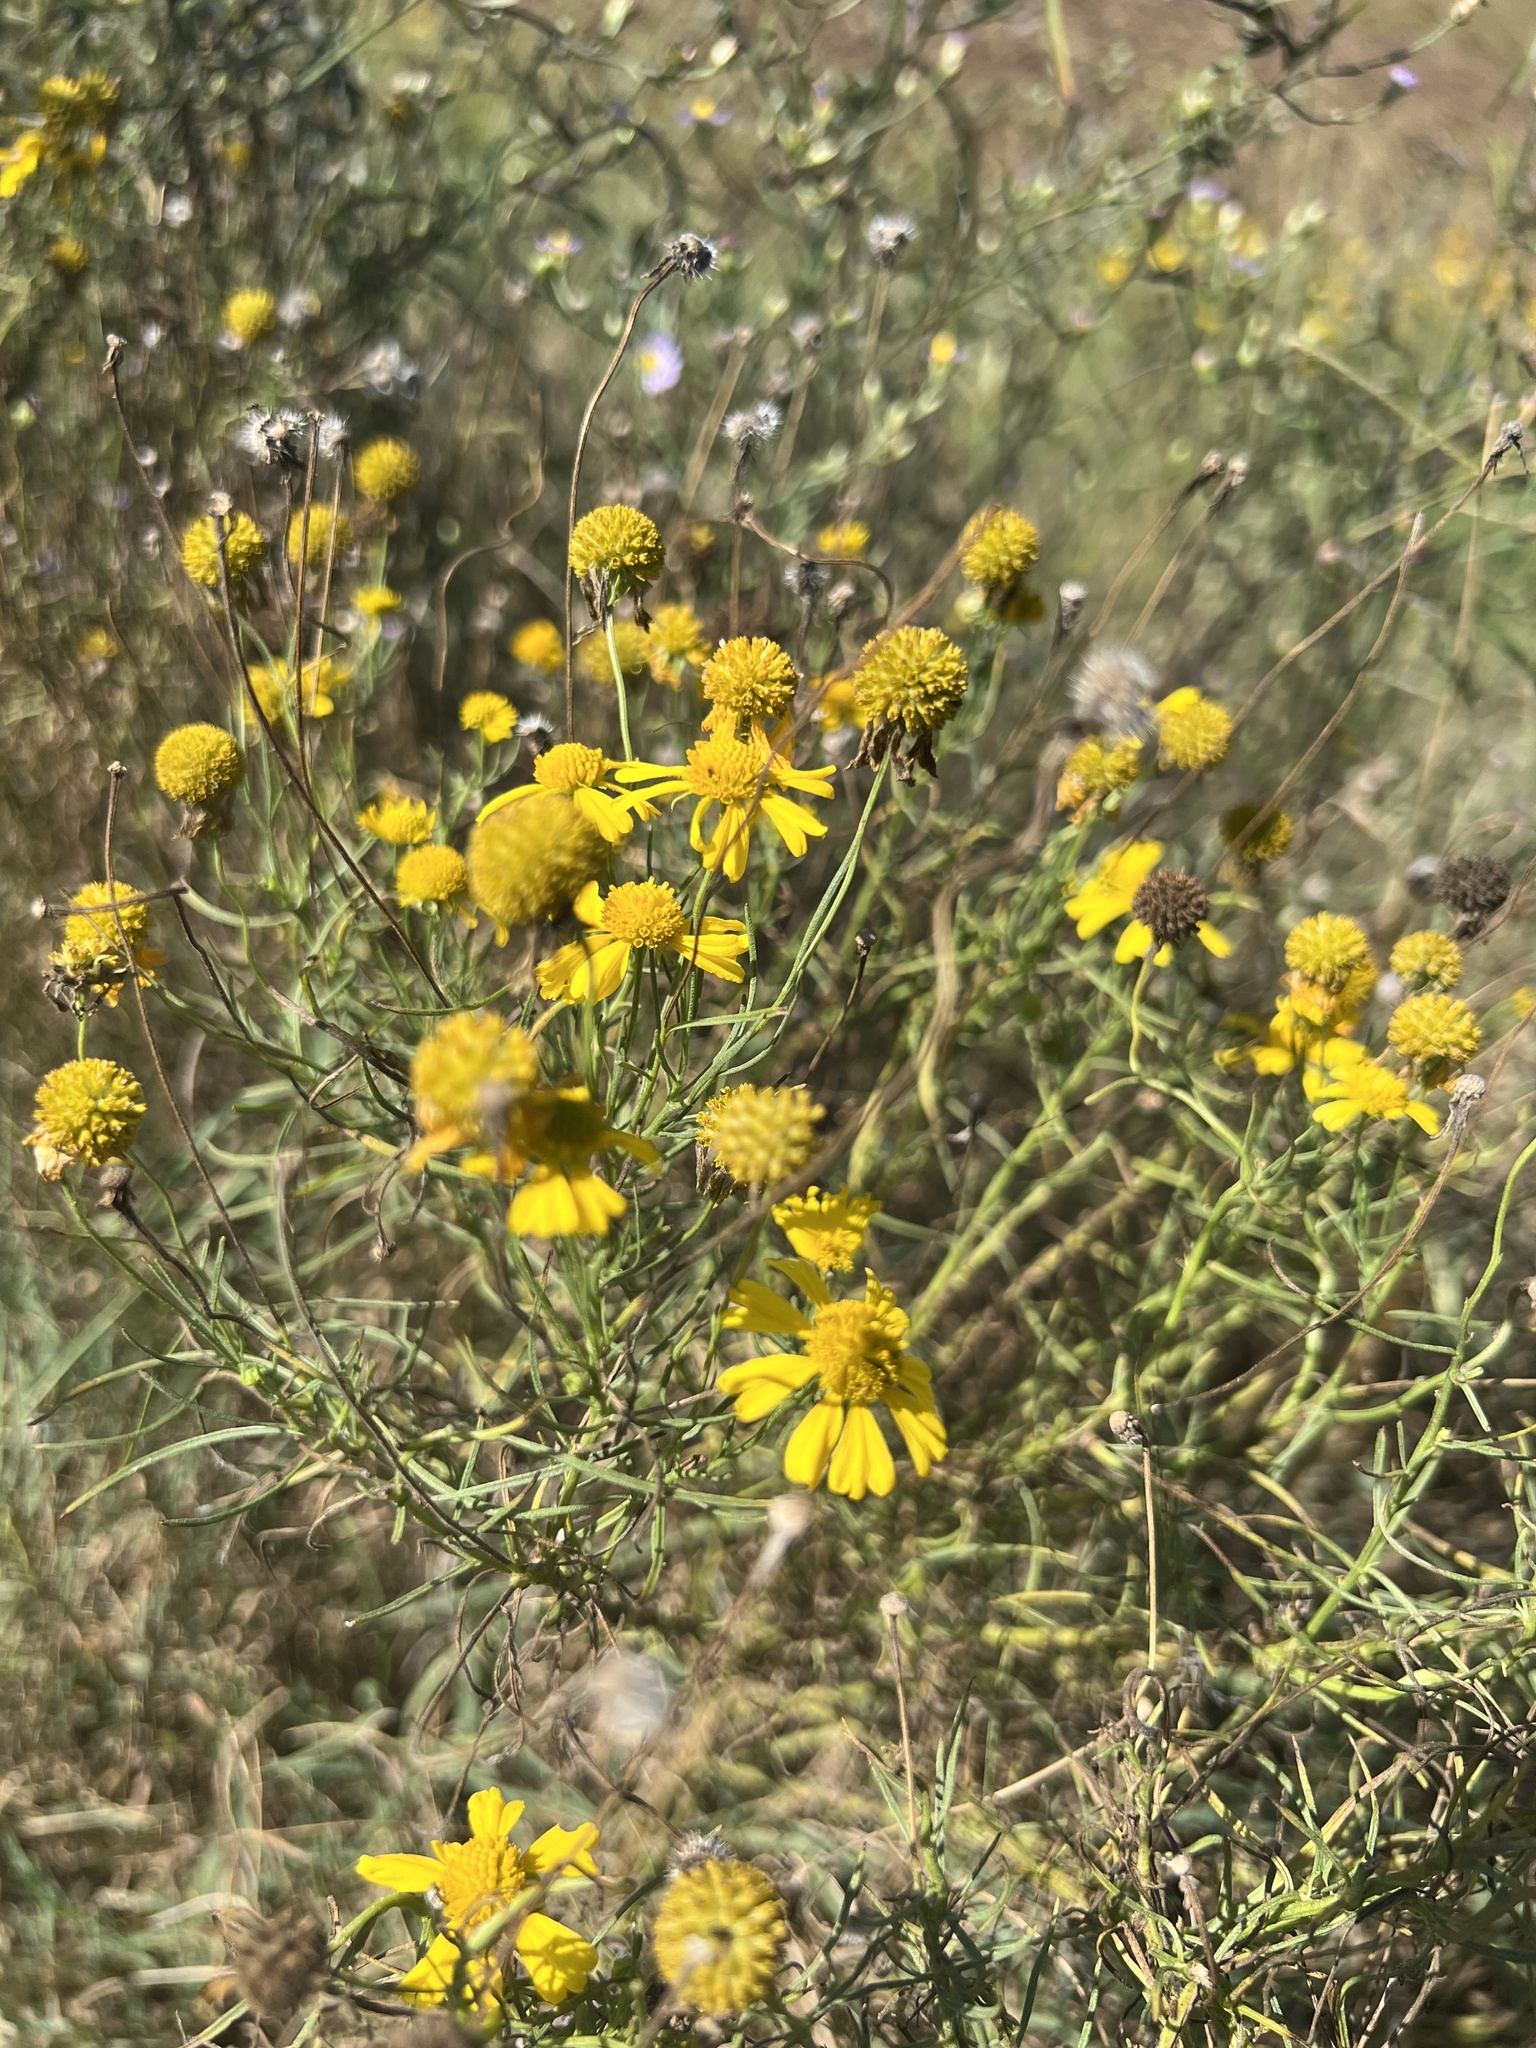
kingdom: Plantae
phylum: Tracheophyta
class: Magnoliopsida
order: Asterales
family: Asteraceae
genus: Helenium
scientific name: Helenium amarum
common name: Bitter sneezeweed
